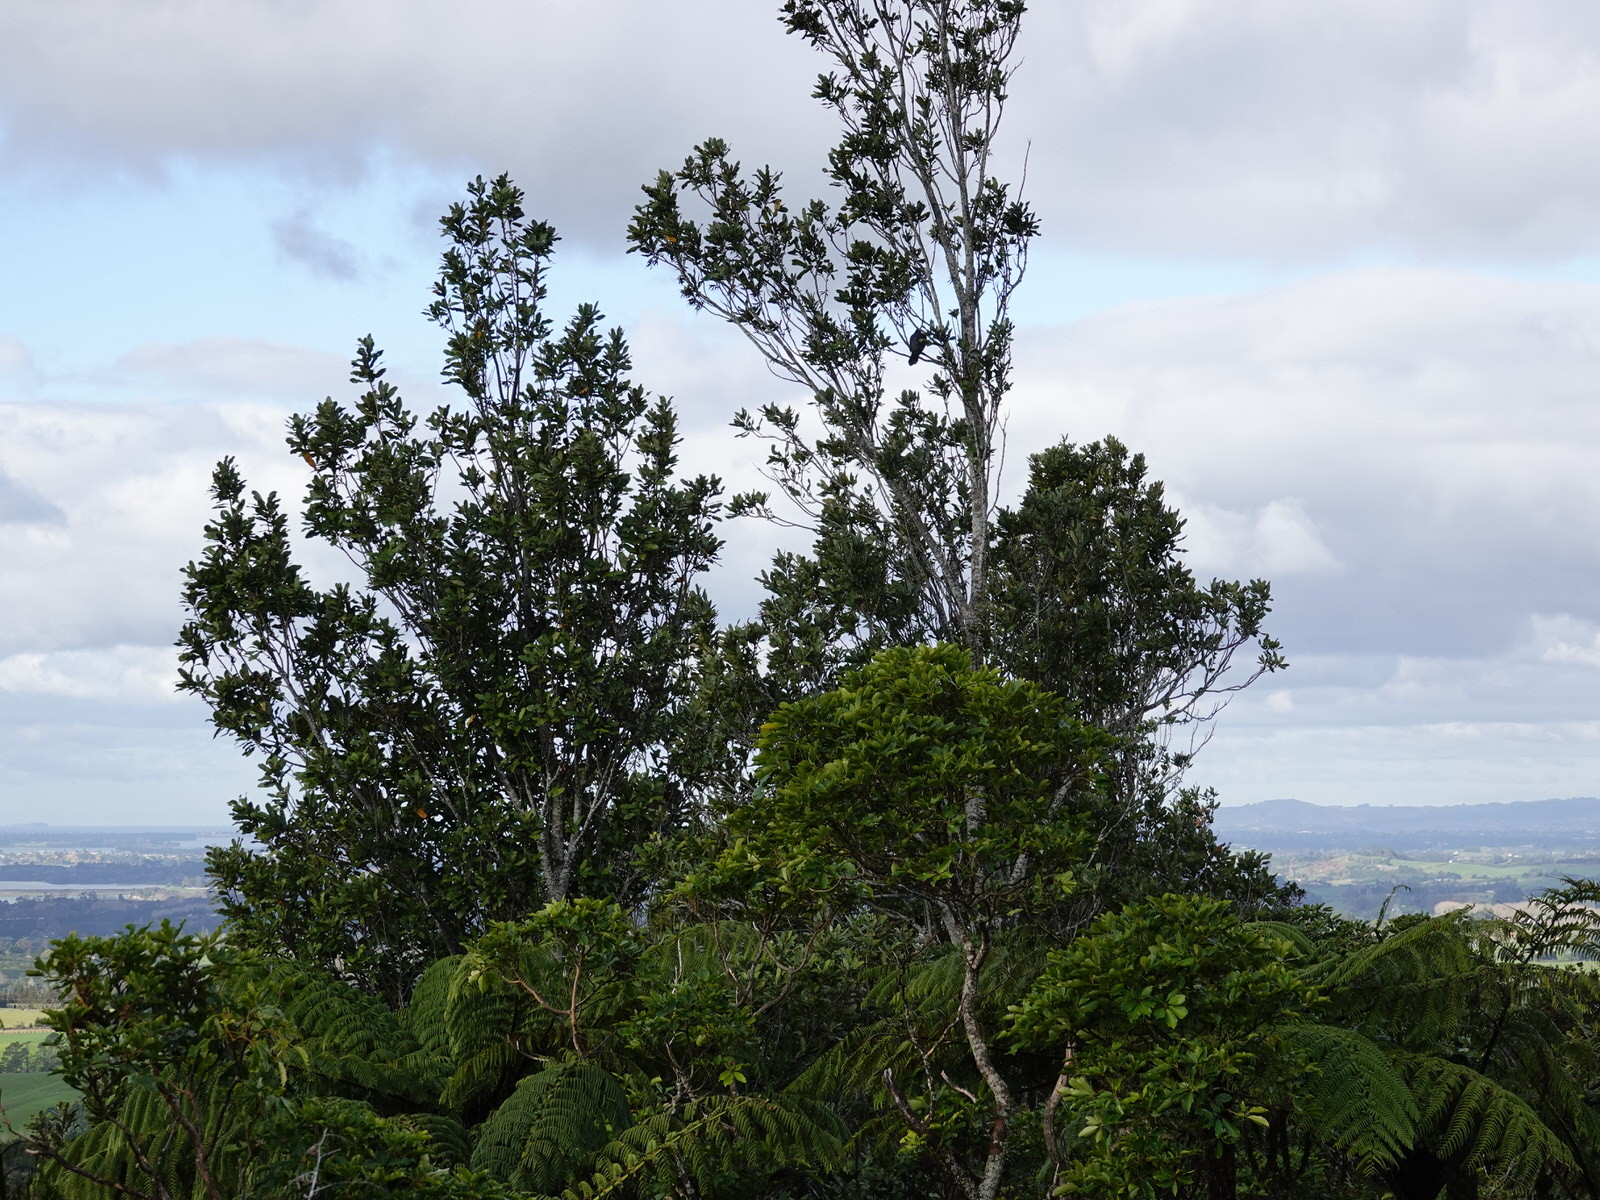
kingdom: Animalia
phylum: Chordata
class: Aves
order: Columbiformes
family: Columbidae
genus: Hemiphaga
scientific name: Hemiphaga novaeseelandiae
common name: New zealand pigeon
